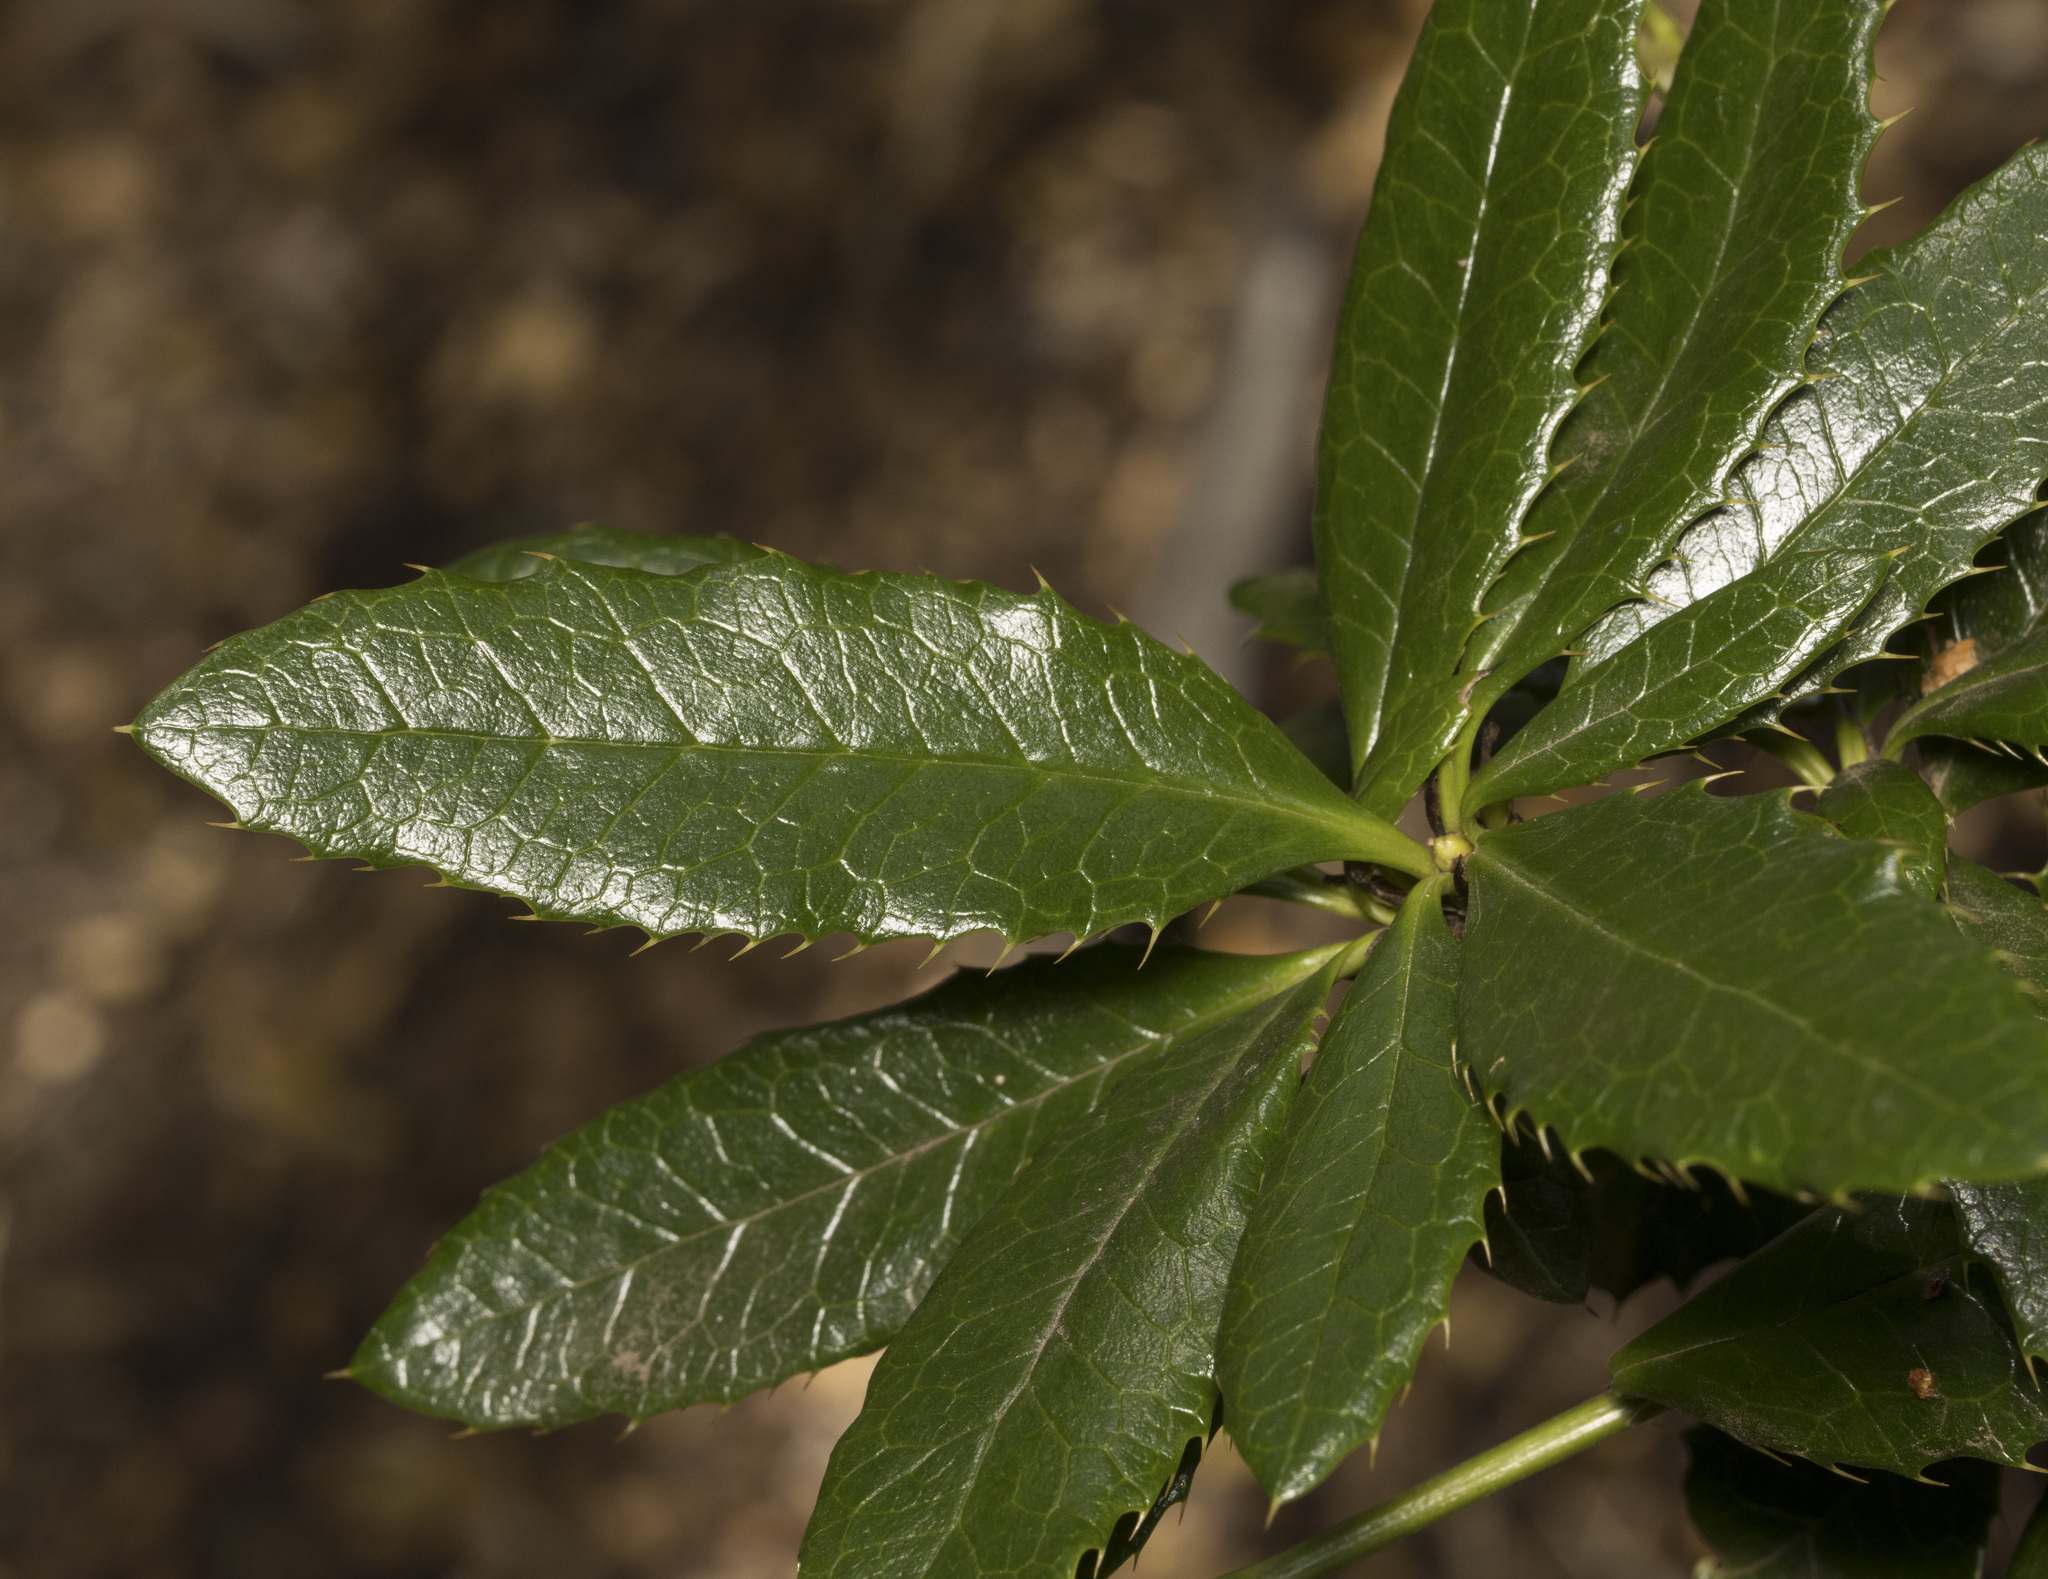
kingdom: Plantae
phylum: Tracheophyta
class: Magnoliopsida
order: Ranunculales
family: Berberidaceae
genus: Berberis
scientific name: Berberis pseudoilicifolia
